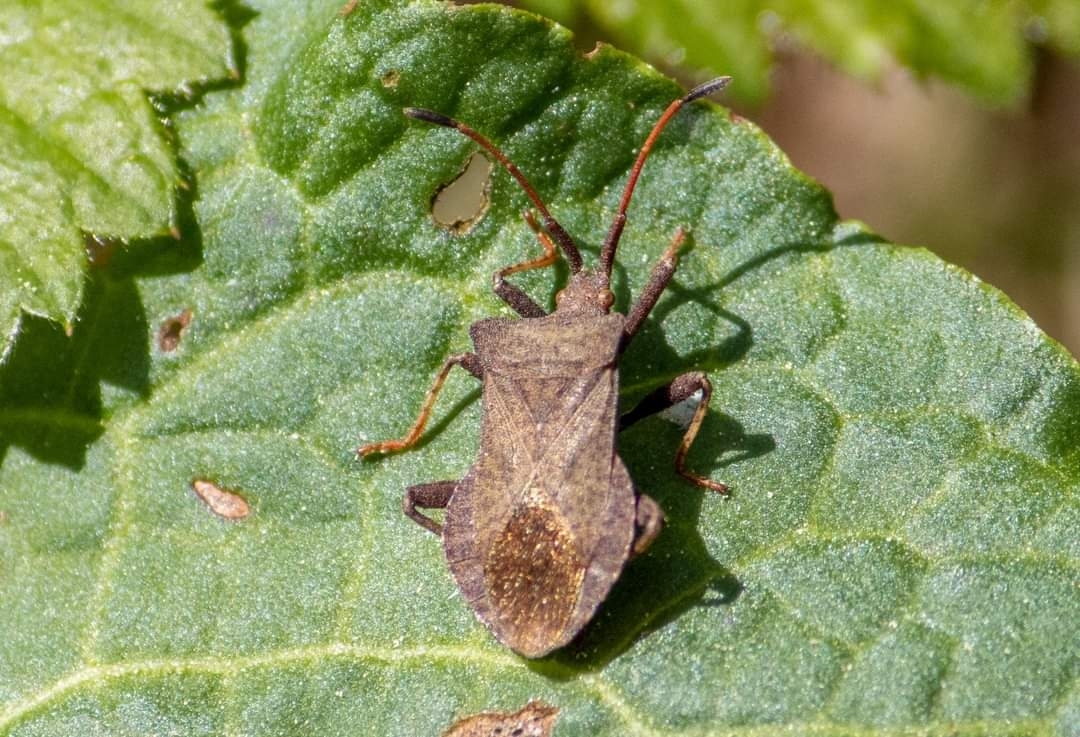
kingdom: Animalia
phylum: Arthropoda
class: Insecta
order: Hemiptera
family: Coreidae
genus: Coreus
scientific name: Coreus marginatus
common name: Dock bug
